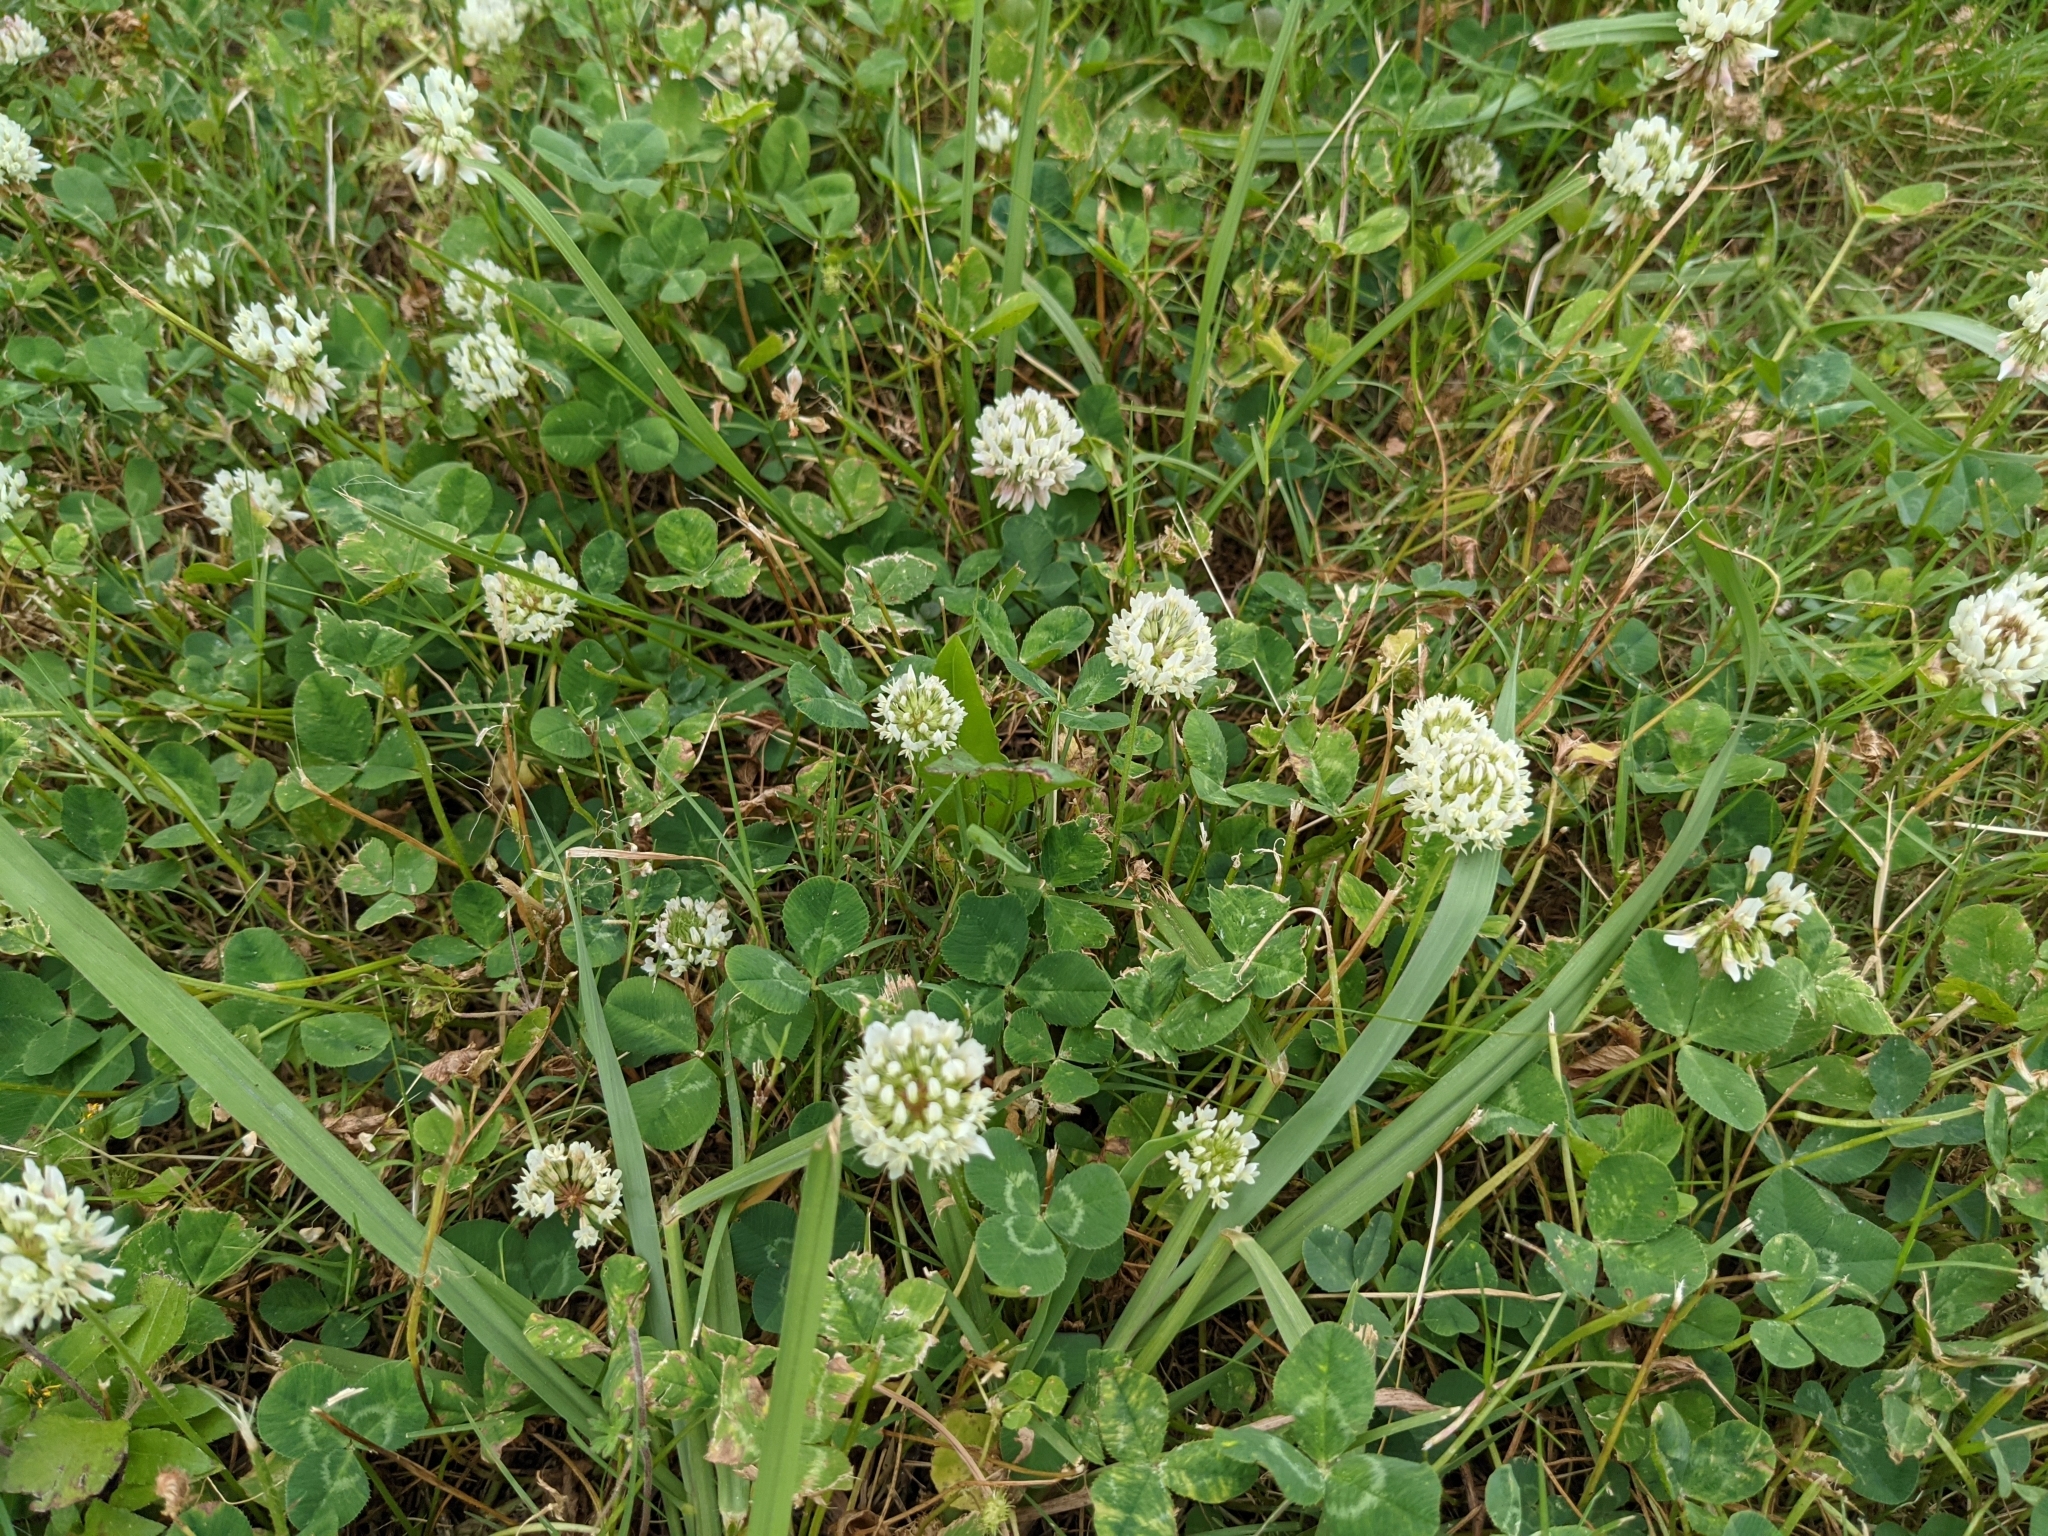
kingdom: Plantae
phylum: Tracheophyta
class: Magnoliopsida
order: Fabales
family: Fabaceae
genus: Trifolium
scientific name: Trifolium repens
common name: White clover
